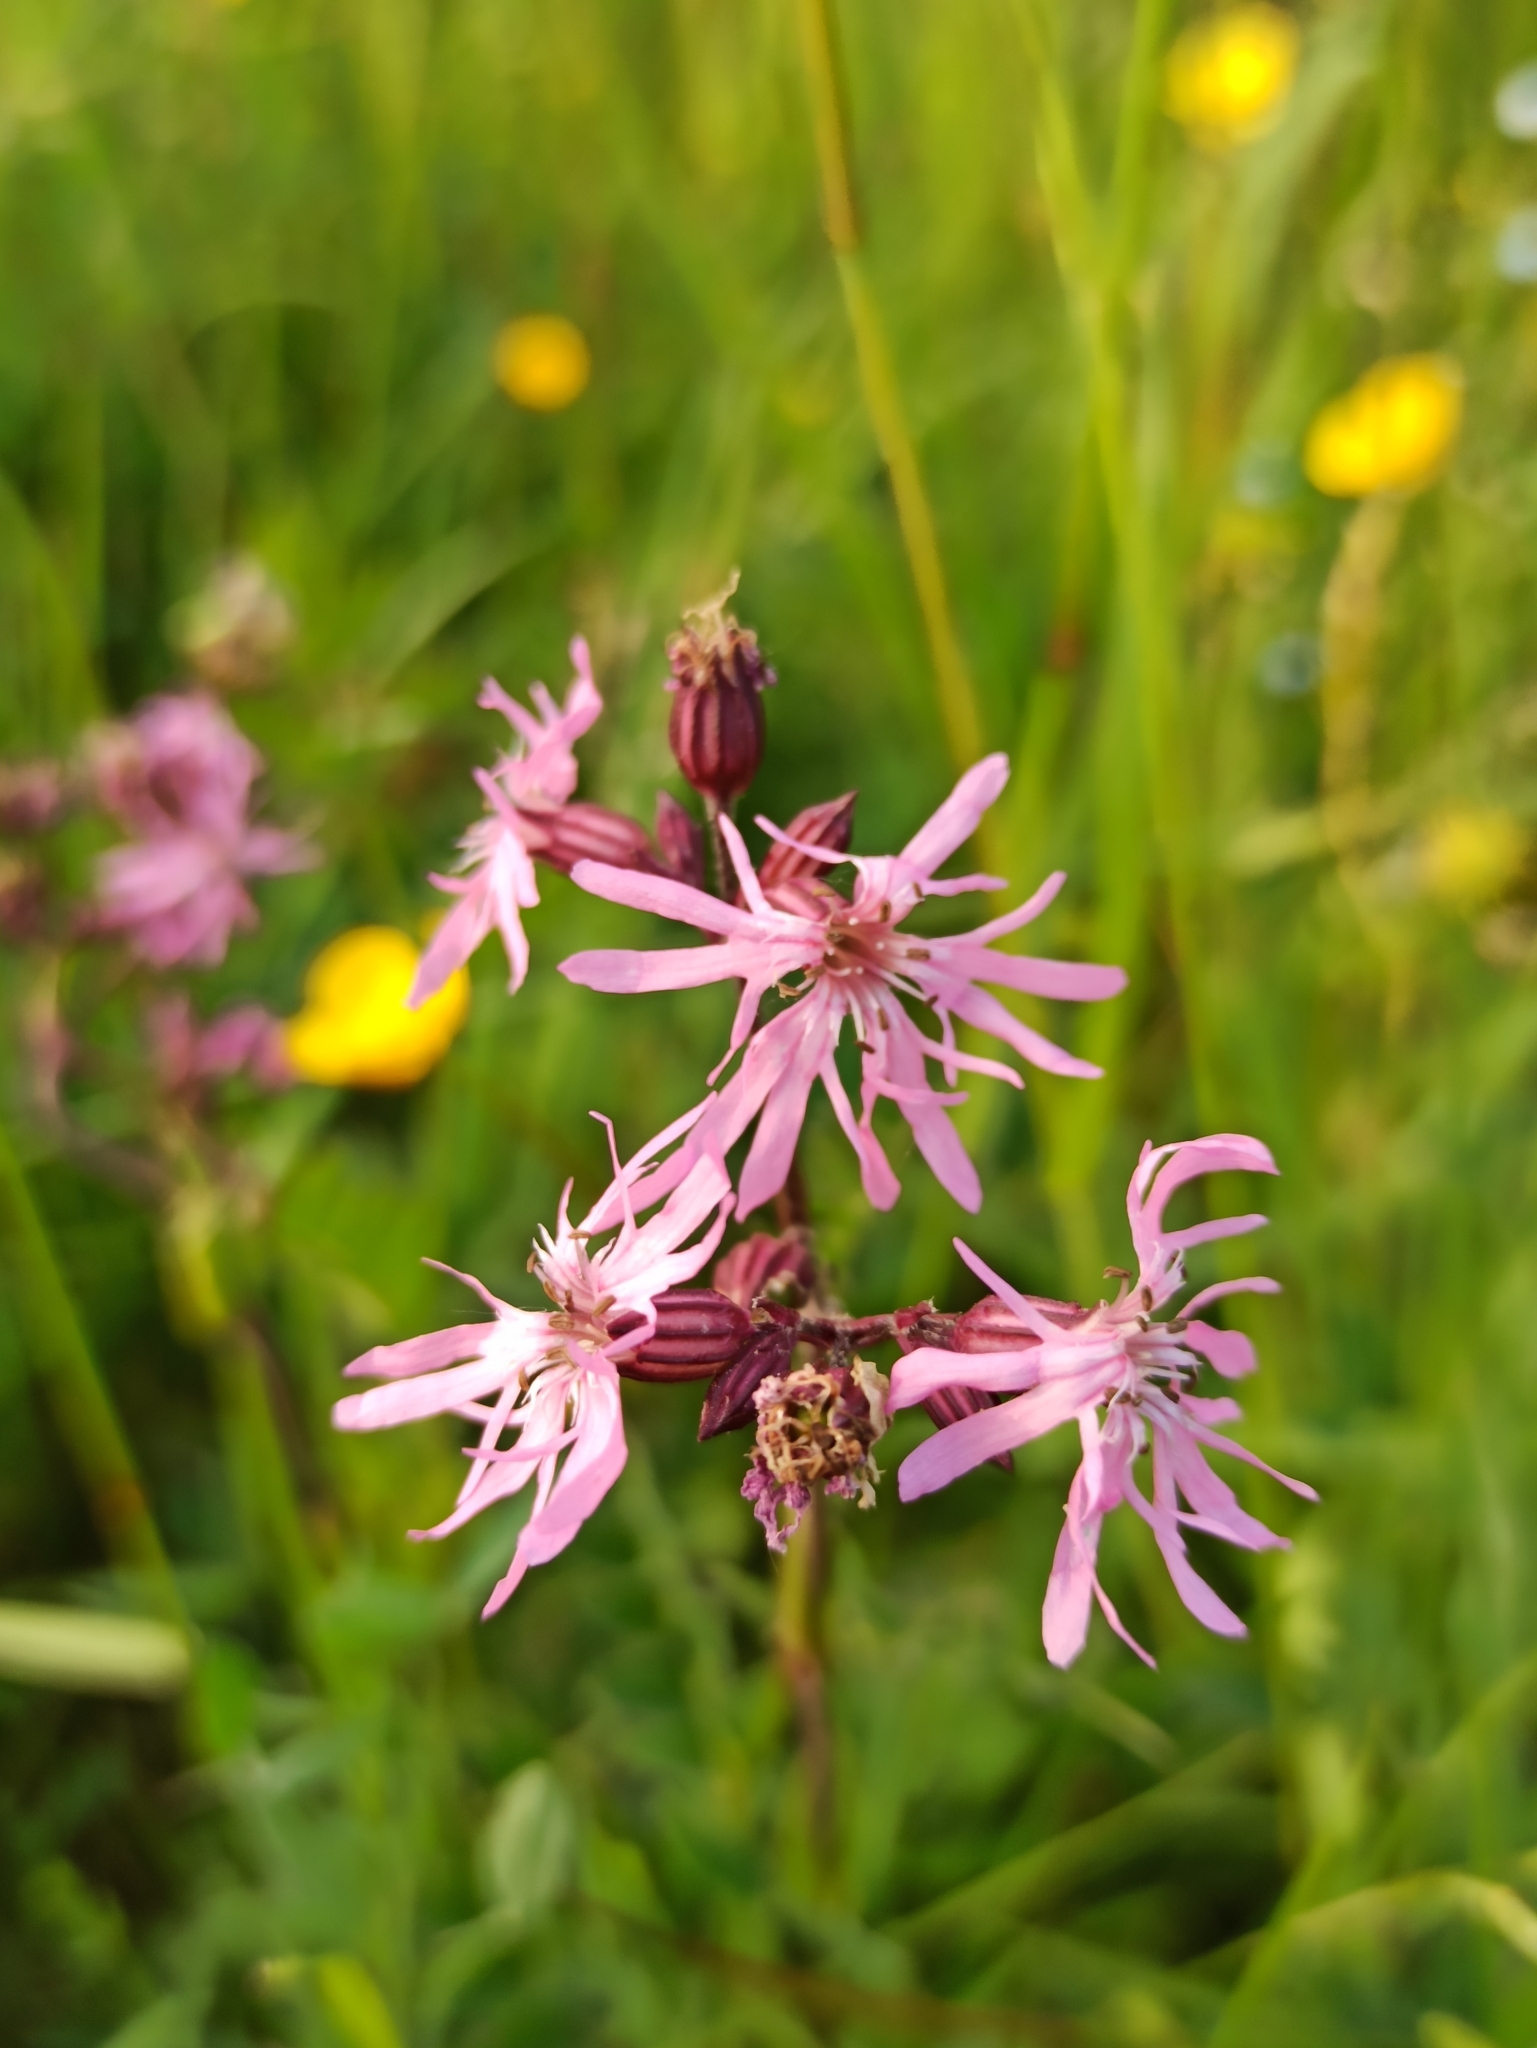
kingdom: Plantae
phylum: Tracheophyta
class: Magnoliopsida
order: Caryophyllales
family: Caryophyllaceae
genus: Silene
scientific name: Silene flos-cuculi
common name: Ragged-robin
